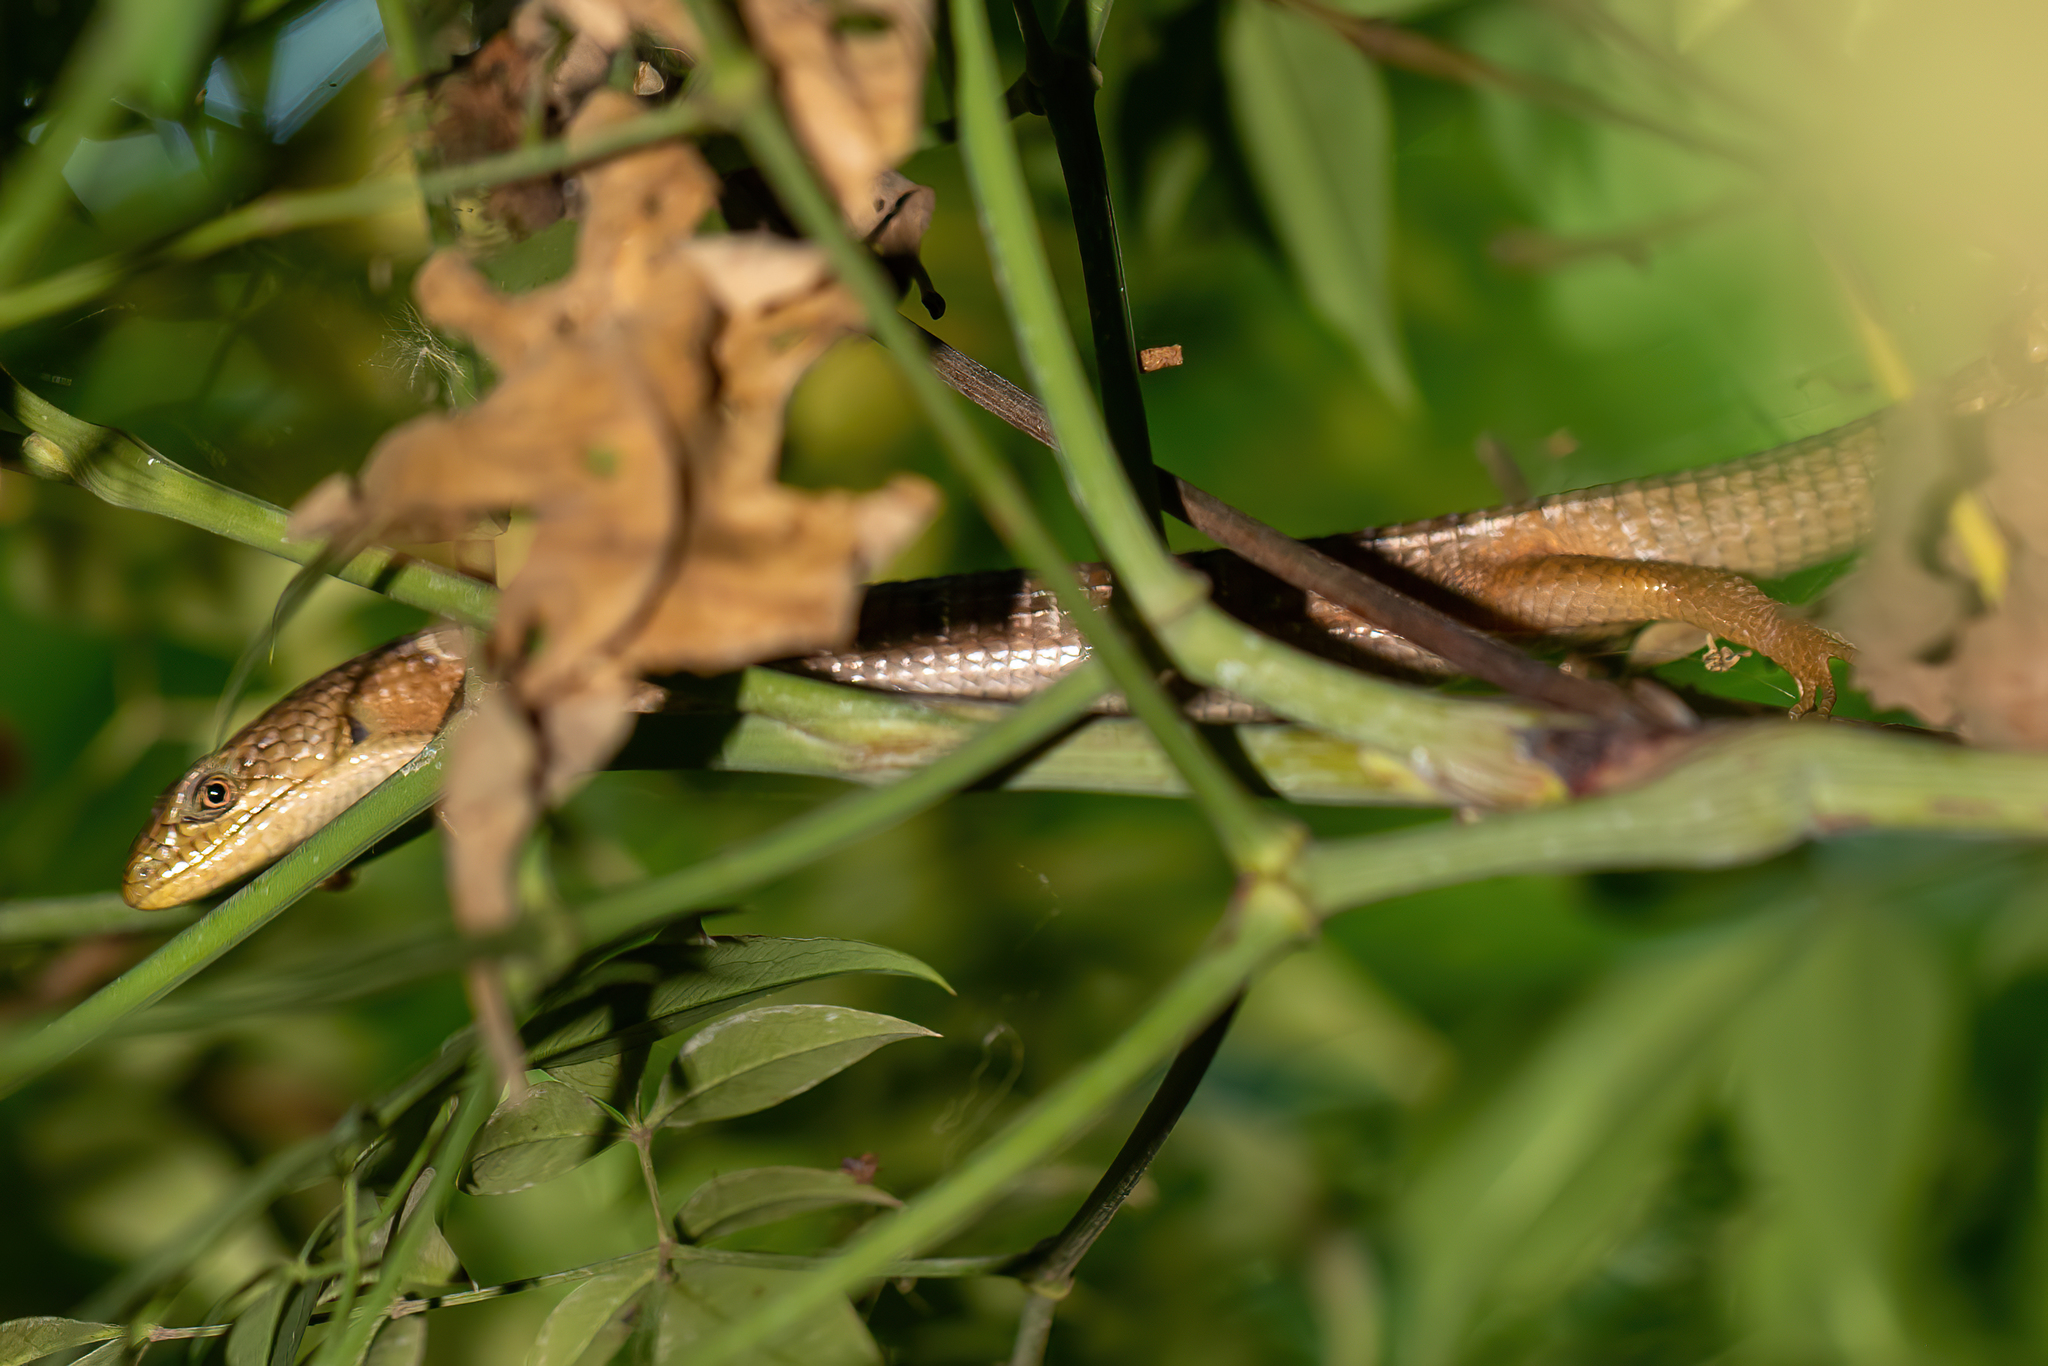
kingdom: Animalia
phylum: Chordata
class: Squamata
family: Anguidae
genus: Elgaria
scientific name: Elgaria multicarinata
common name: Southern alligator lizard
